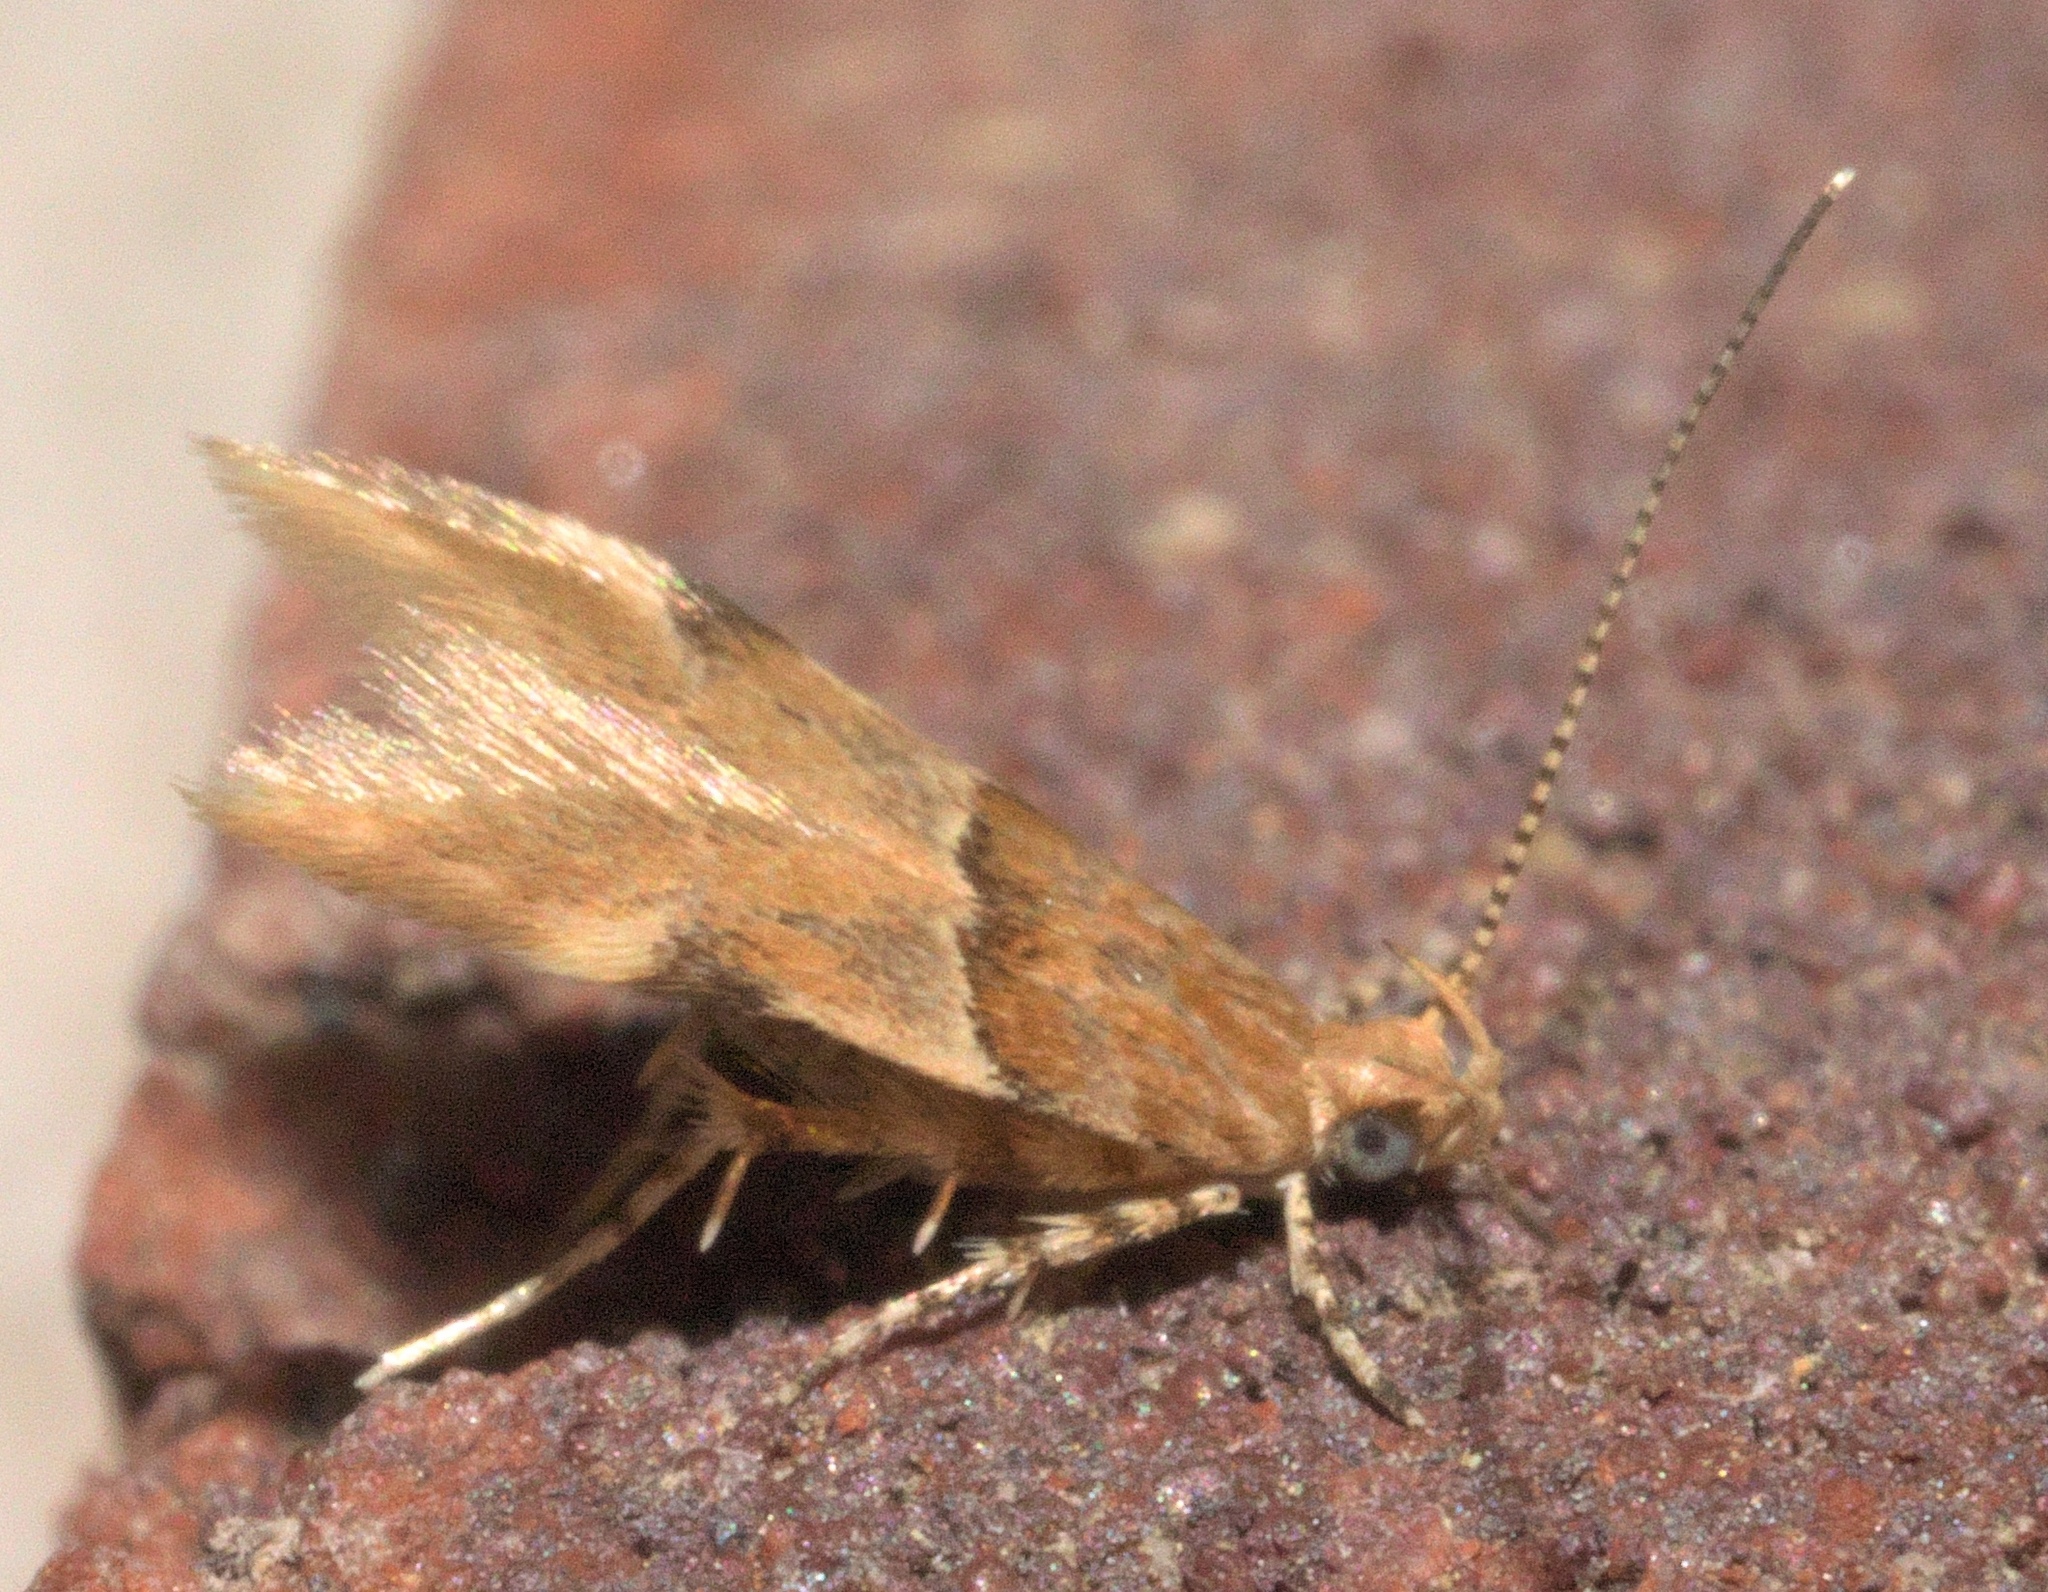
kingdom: Animalia
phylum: Arthropoda
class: Insecta
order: Lepidoptera
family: Gelechiidae
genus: Theisoa
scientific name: Theisoa constrictella
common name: Constricted twirler
